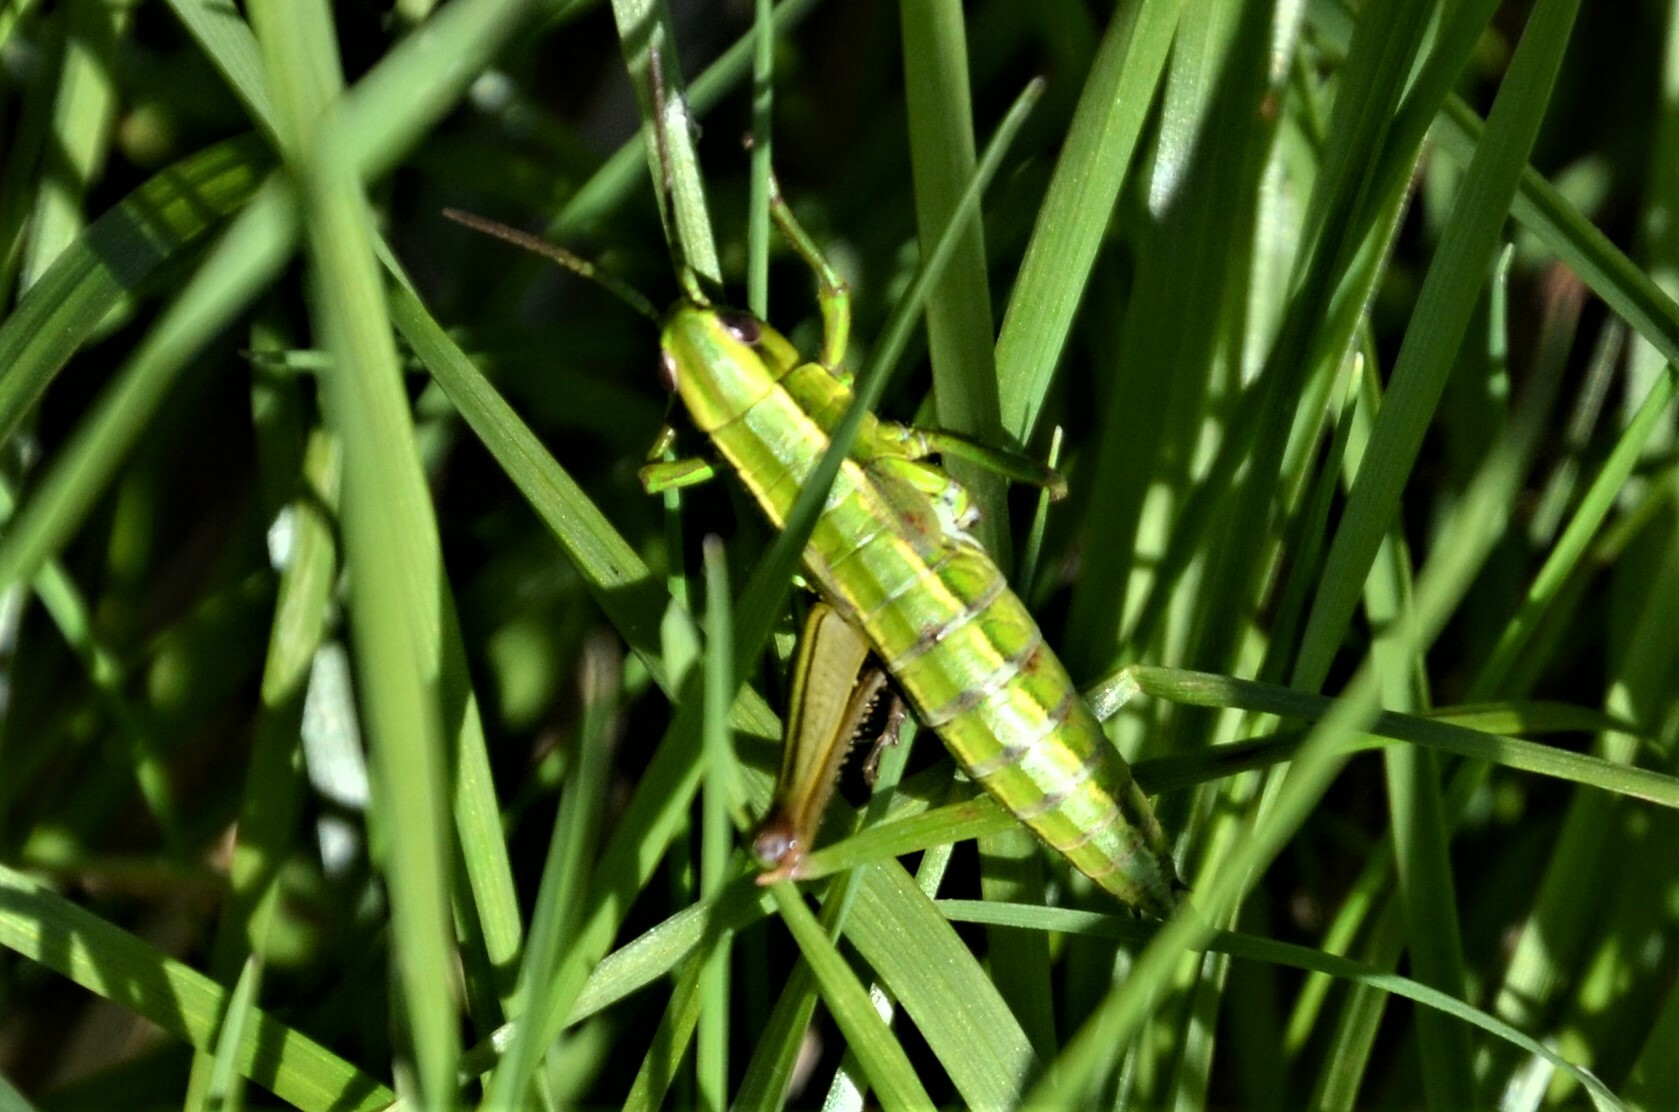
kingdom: Animalia
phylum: Arthropoda
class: Insecta
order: Orthoptera
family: Acrididae
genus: Euthystira
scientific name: Euthystira brachyptera
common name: Small gold grasshopper
